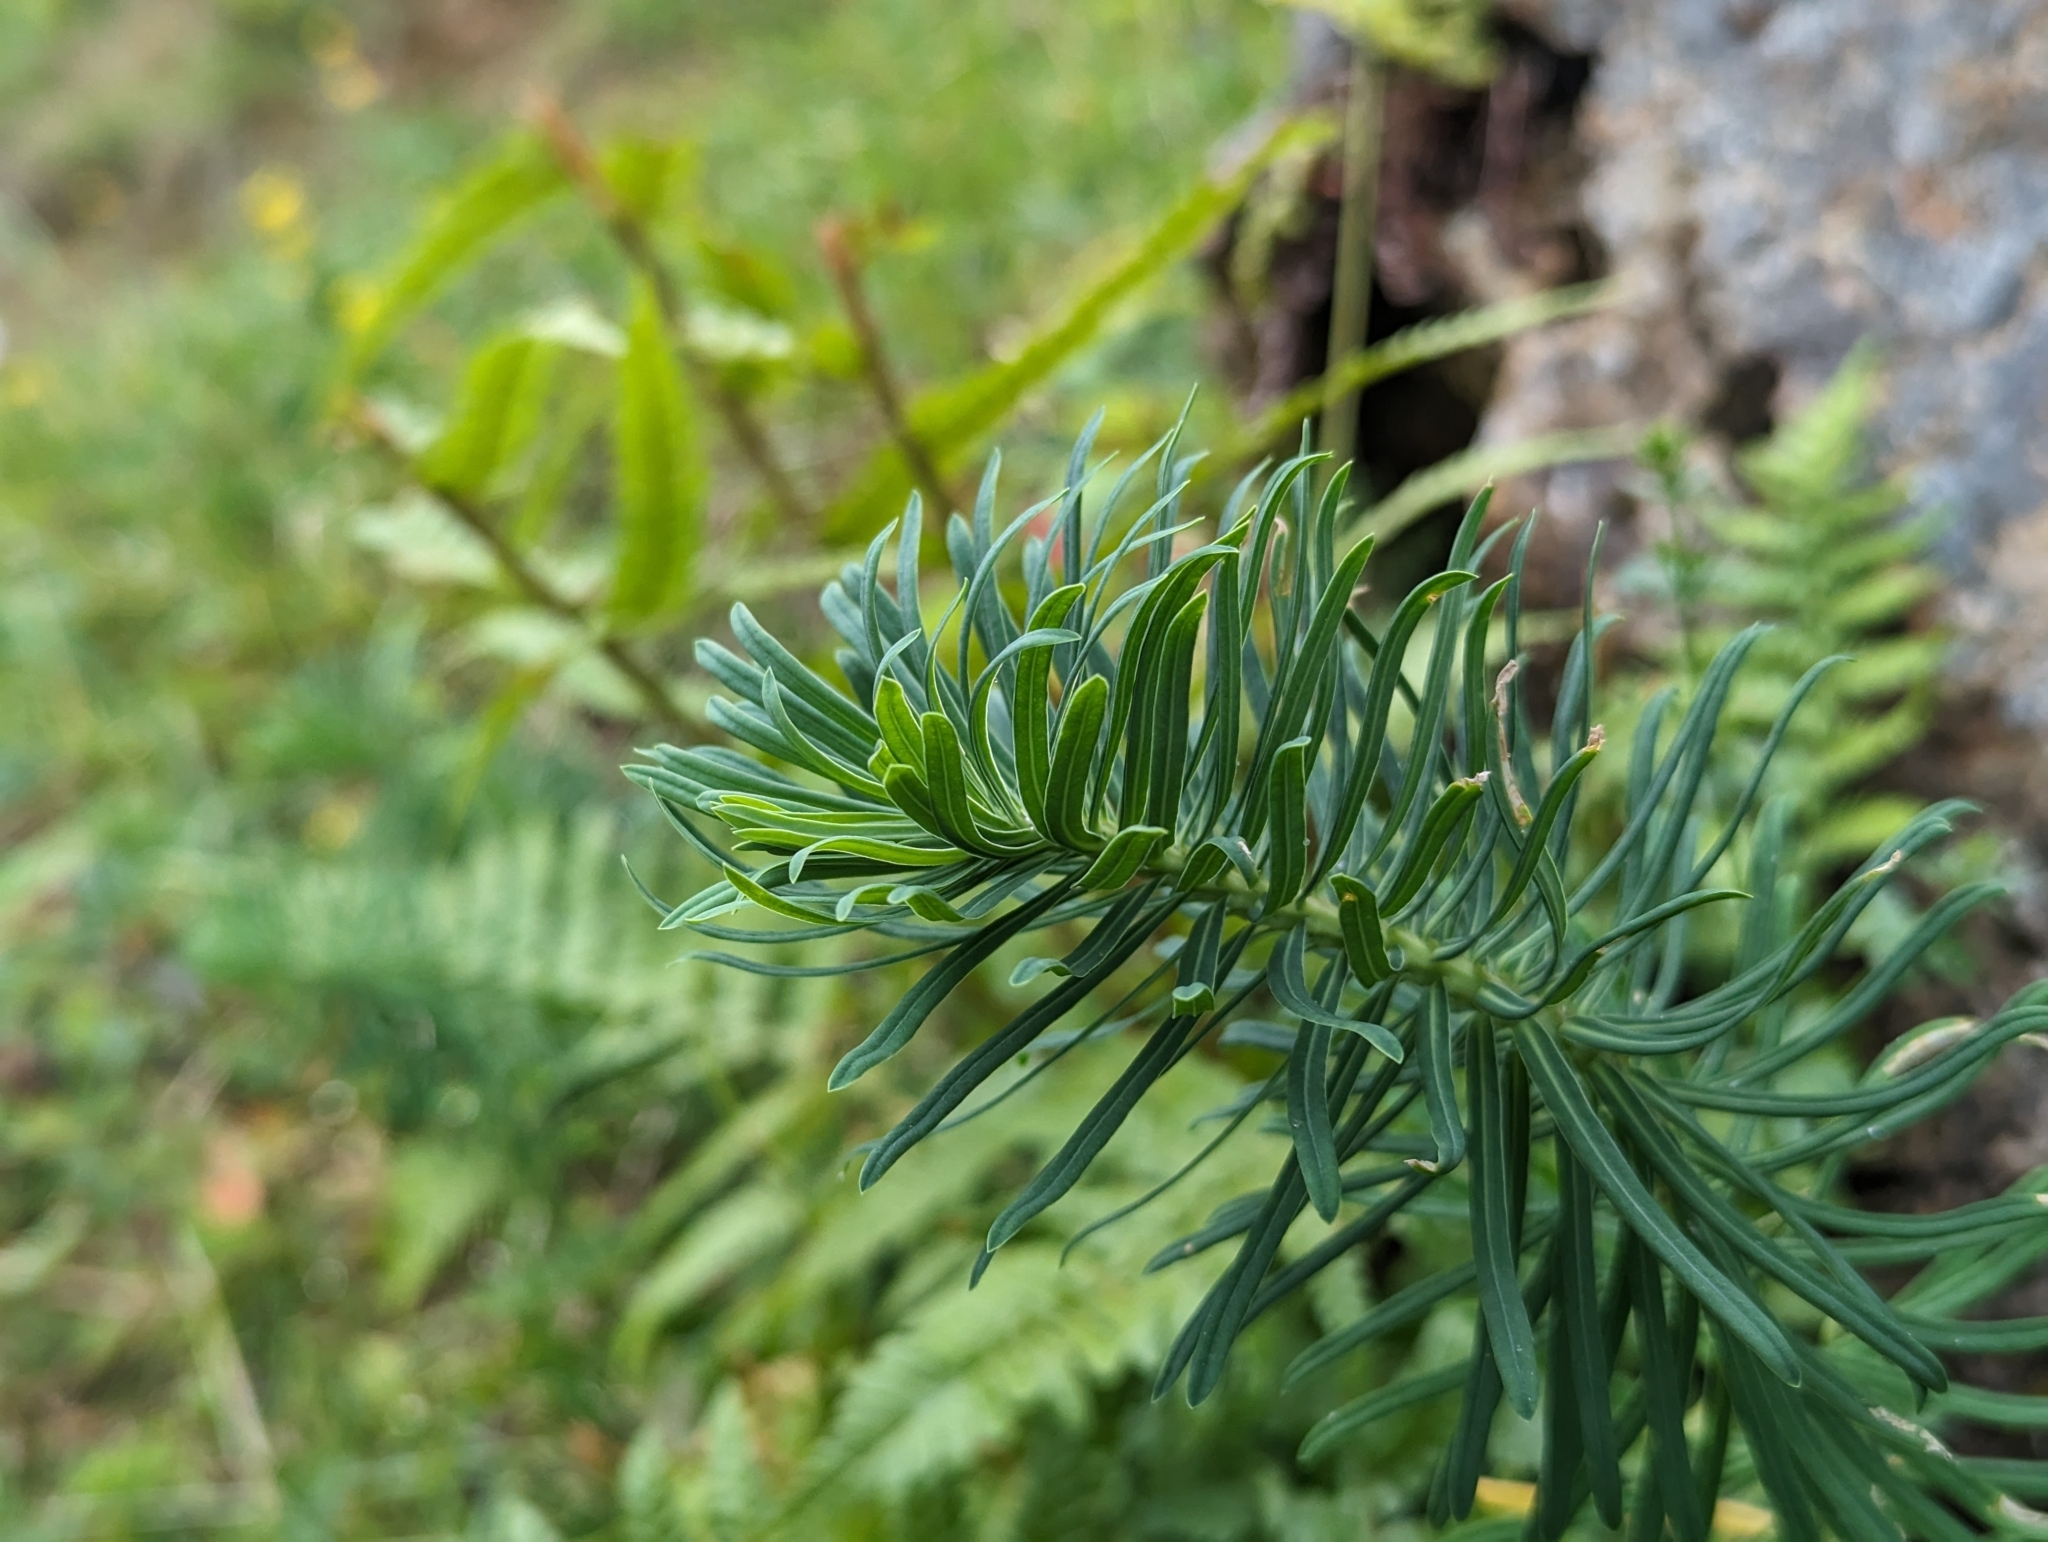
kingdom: Plantae
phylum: Tracheophyta
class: Magnoliopsida
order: Malpighiales
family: Euphorbiaceae
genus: Euphorbia
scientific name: Euphorbia cyparissias
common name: Cypress spurge
